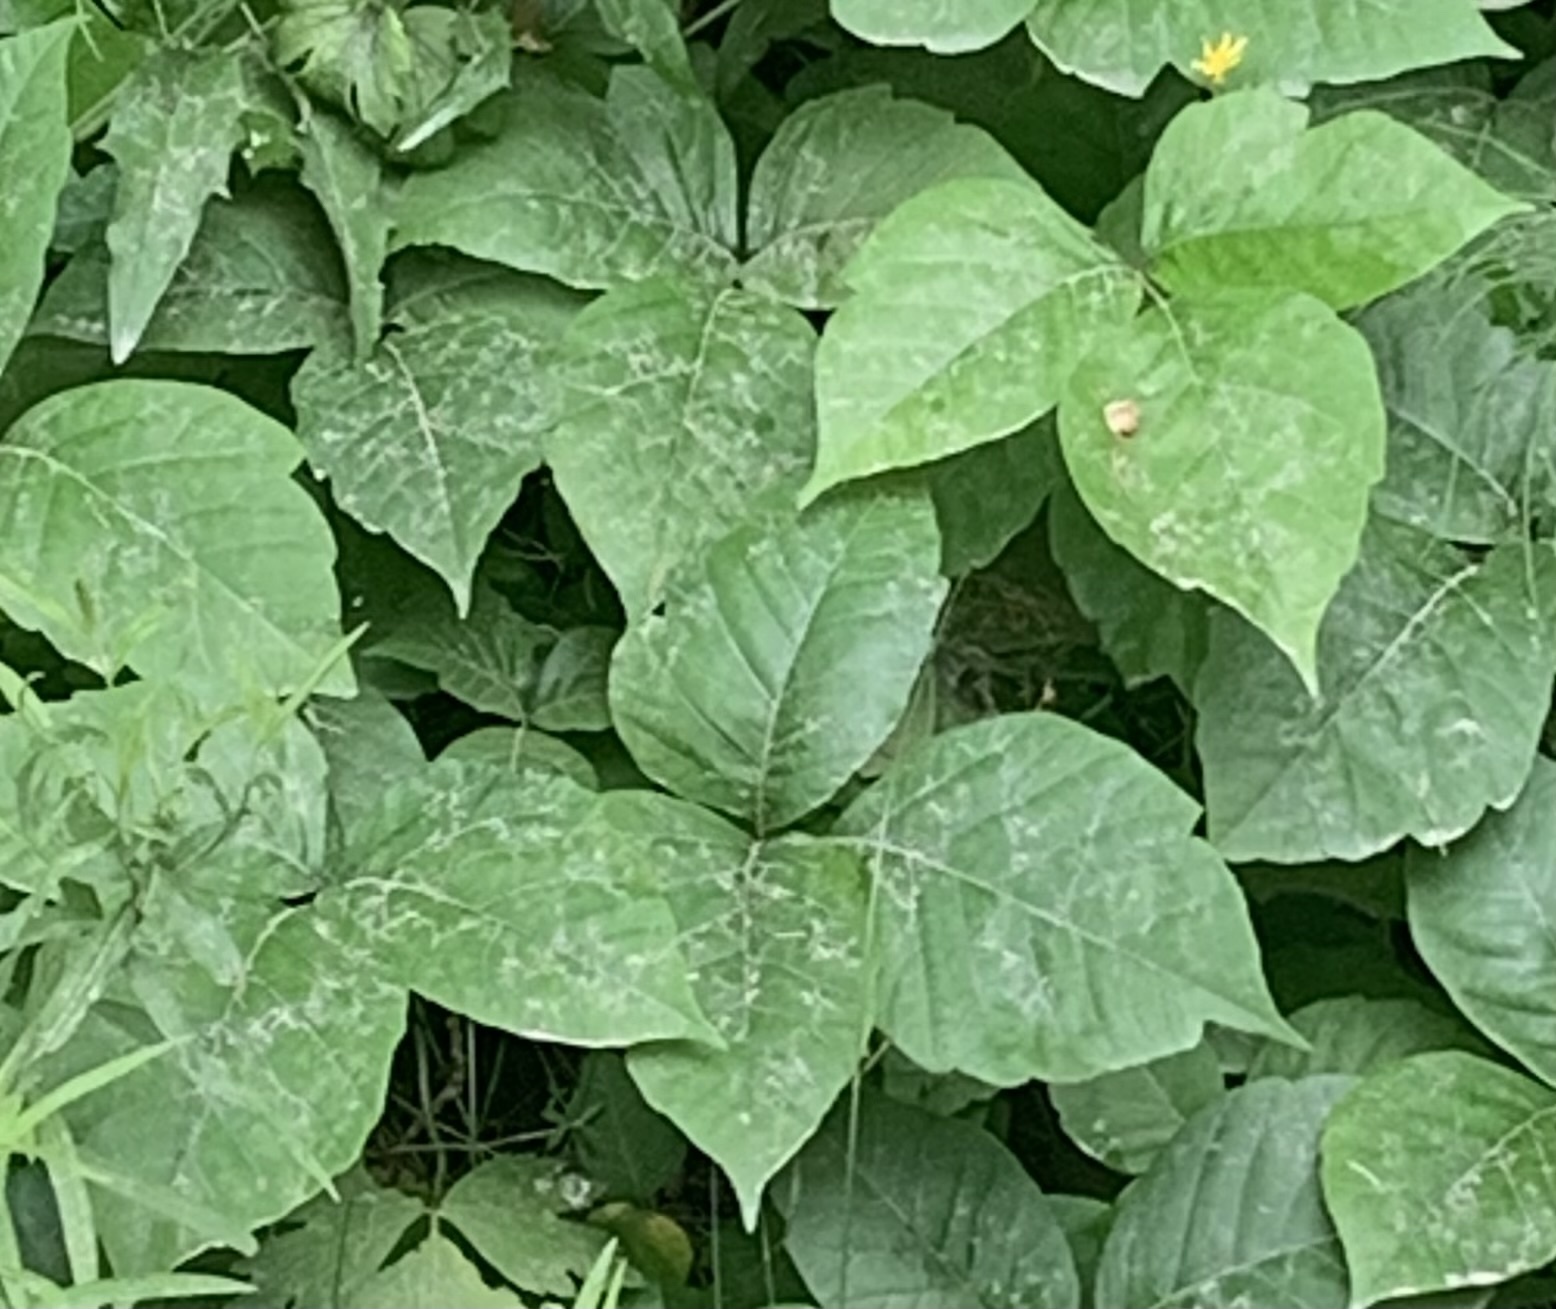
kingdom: Plantae
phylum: Tracheophyta
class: Magnoliopsida
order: Sapindales
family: Anacardiaceae
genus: Toxicodendron
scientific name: Toxicodendron radicans
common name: Poison ivy
